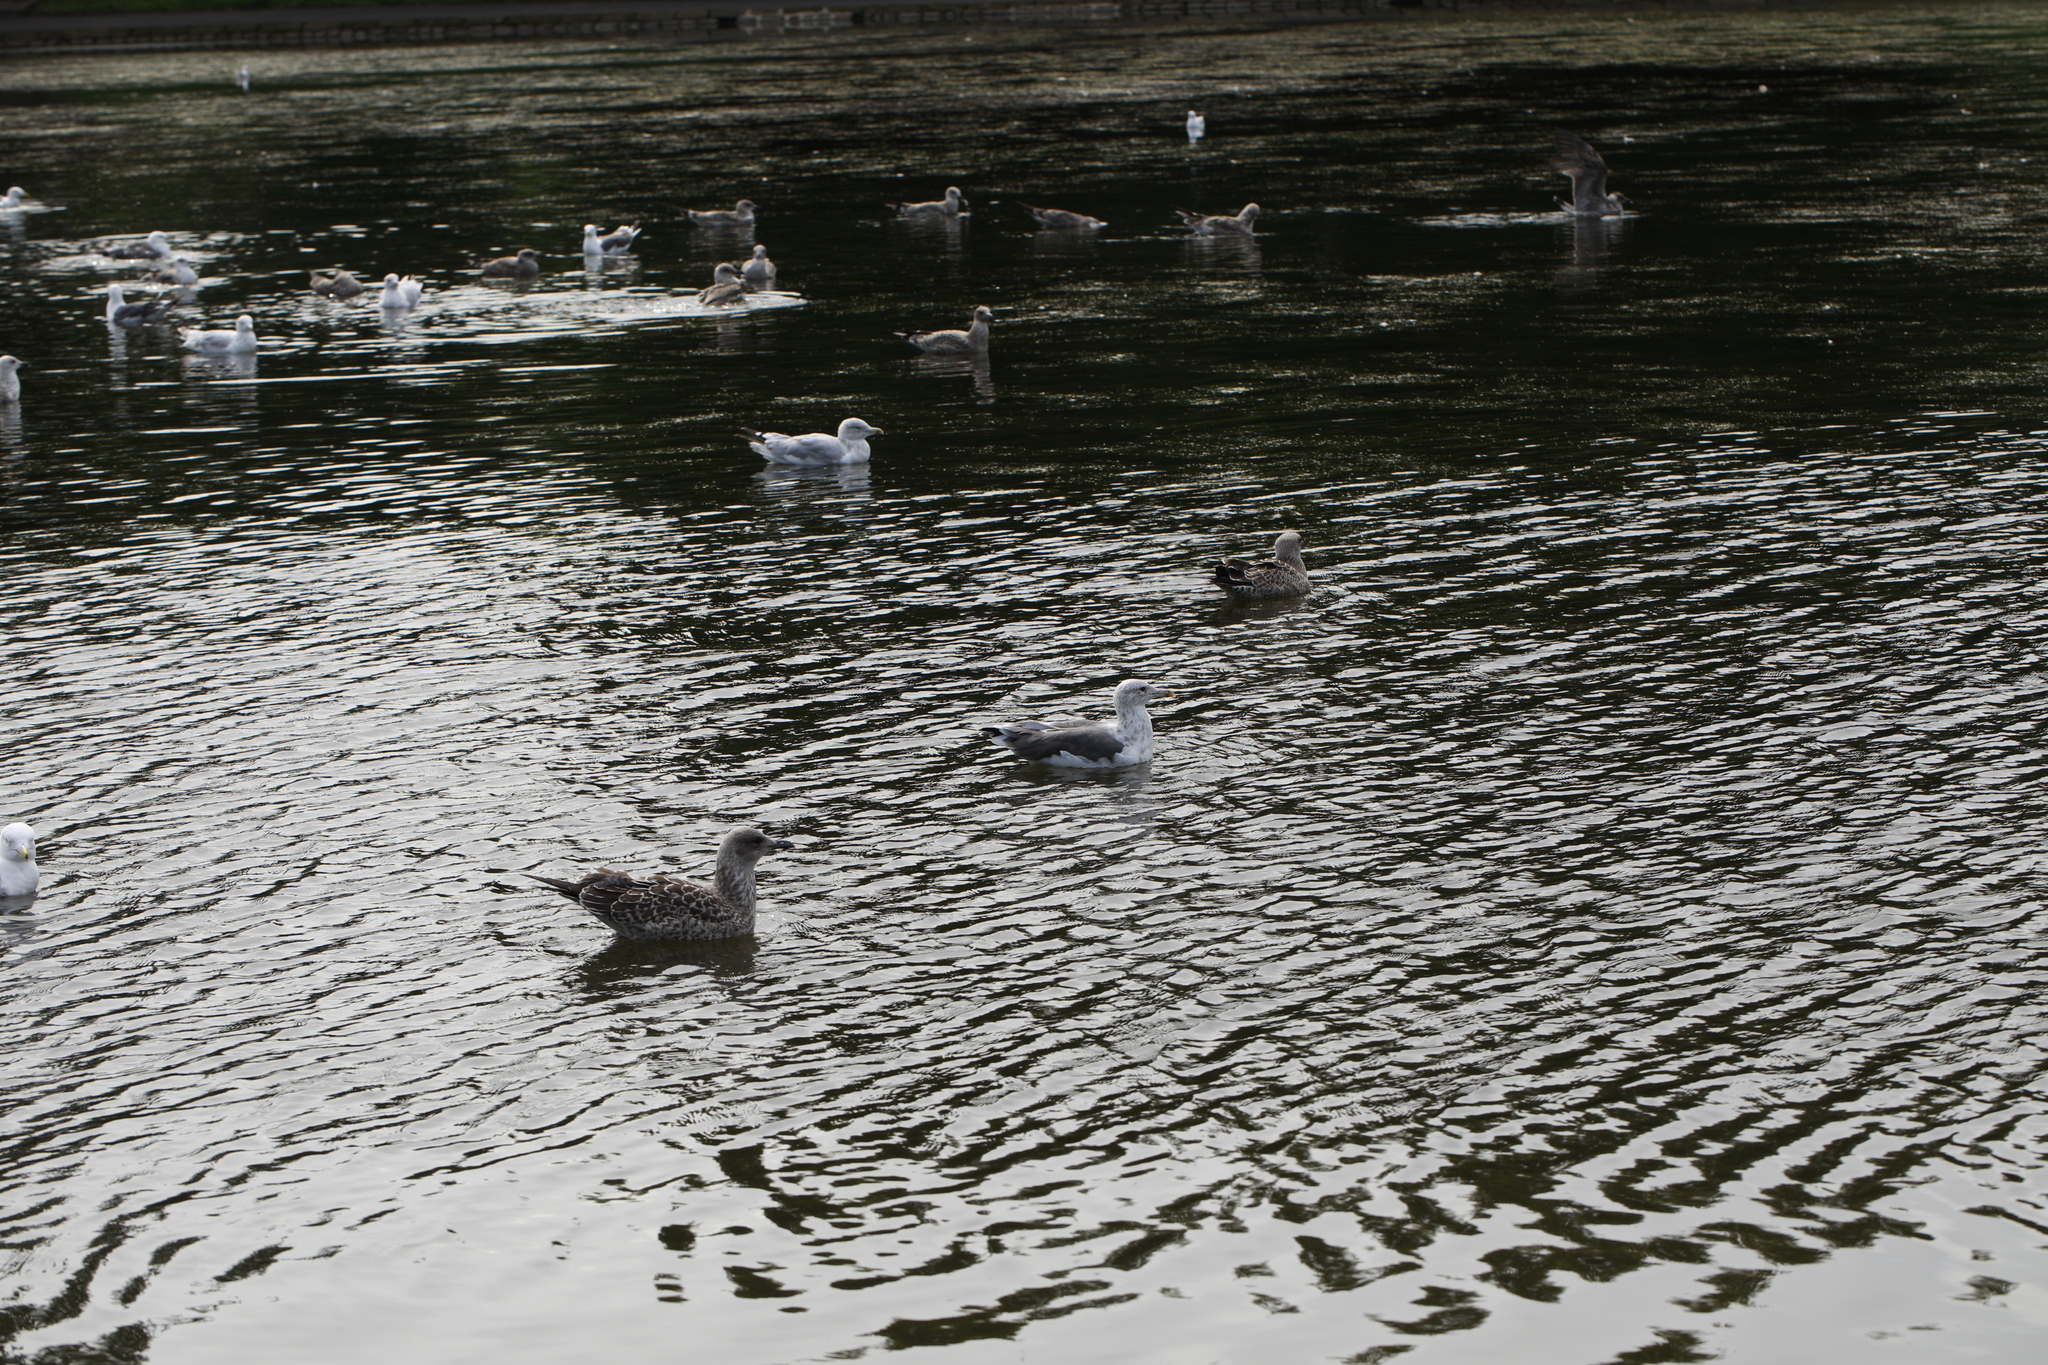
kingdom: Animalia
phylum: Chordata
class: Aves
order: Charadriiformes
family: Laridae
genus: Larus
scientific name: Larus argentatus
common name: Herring gull
